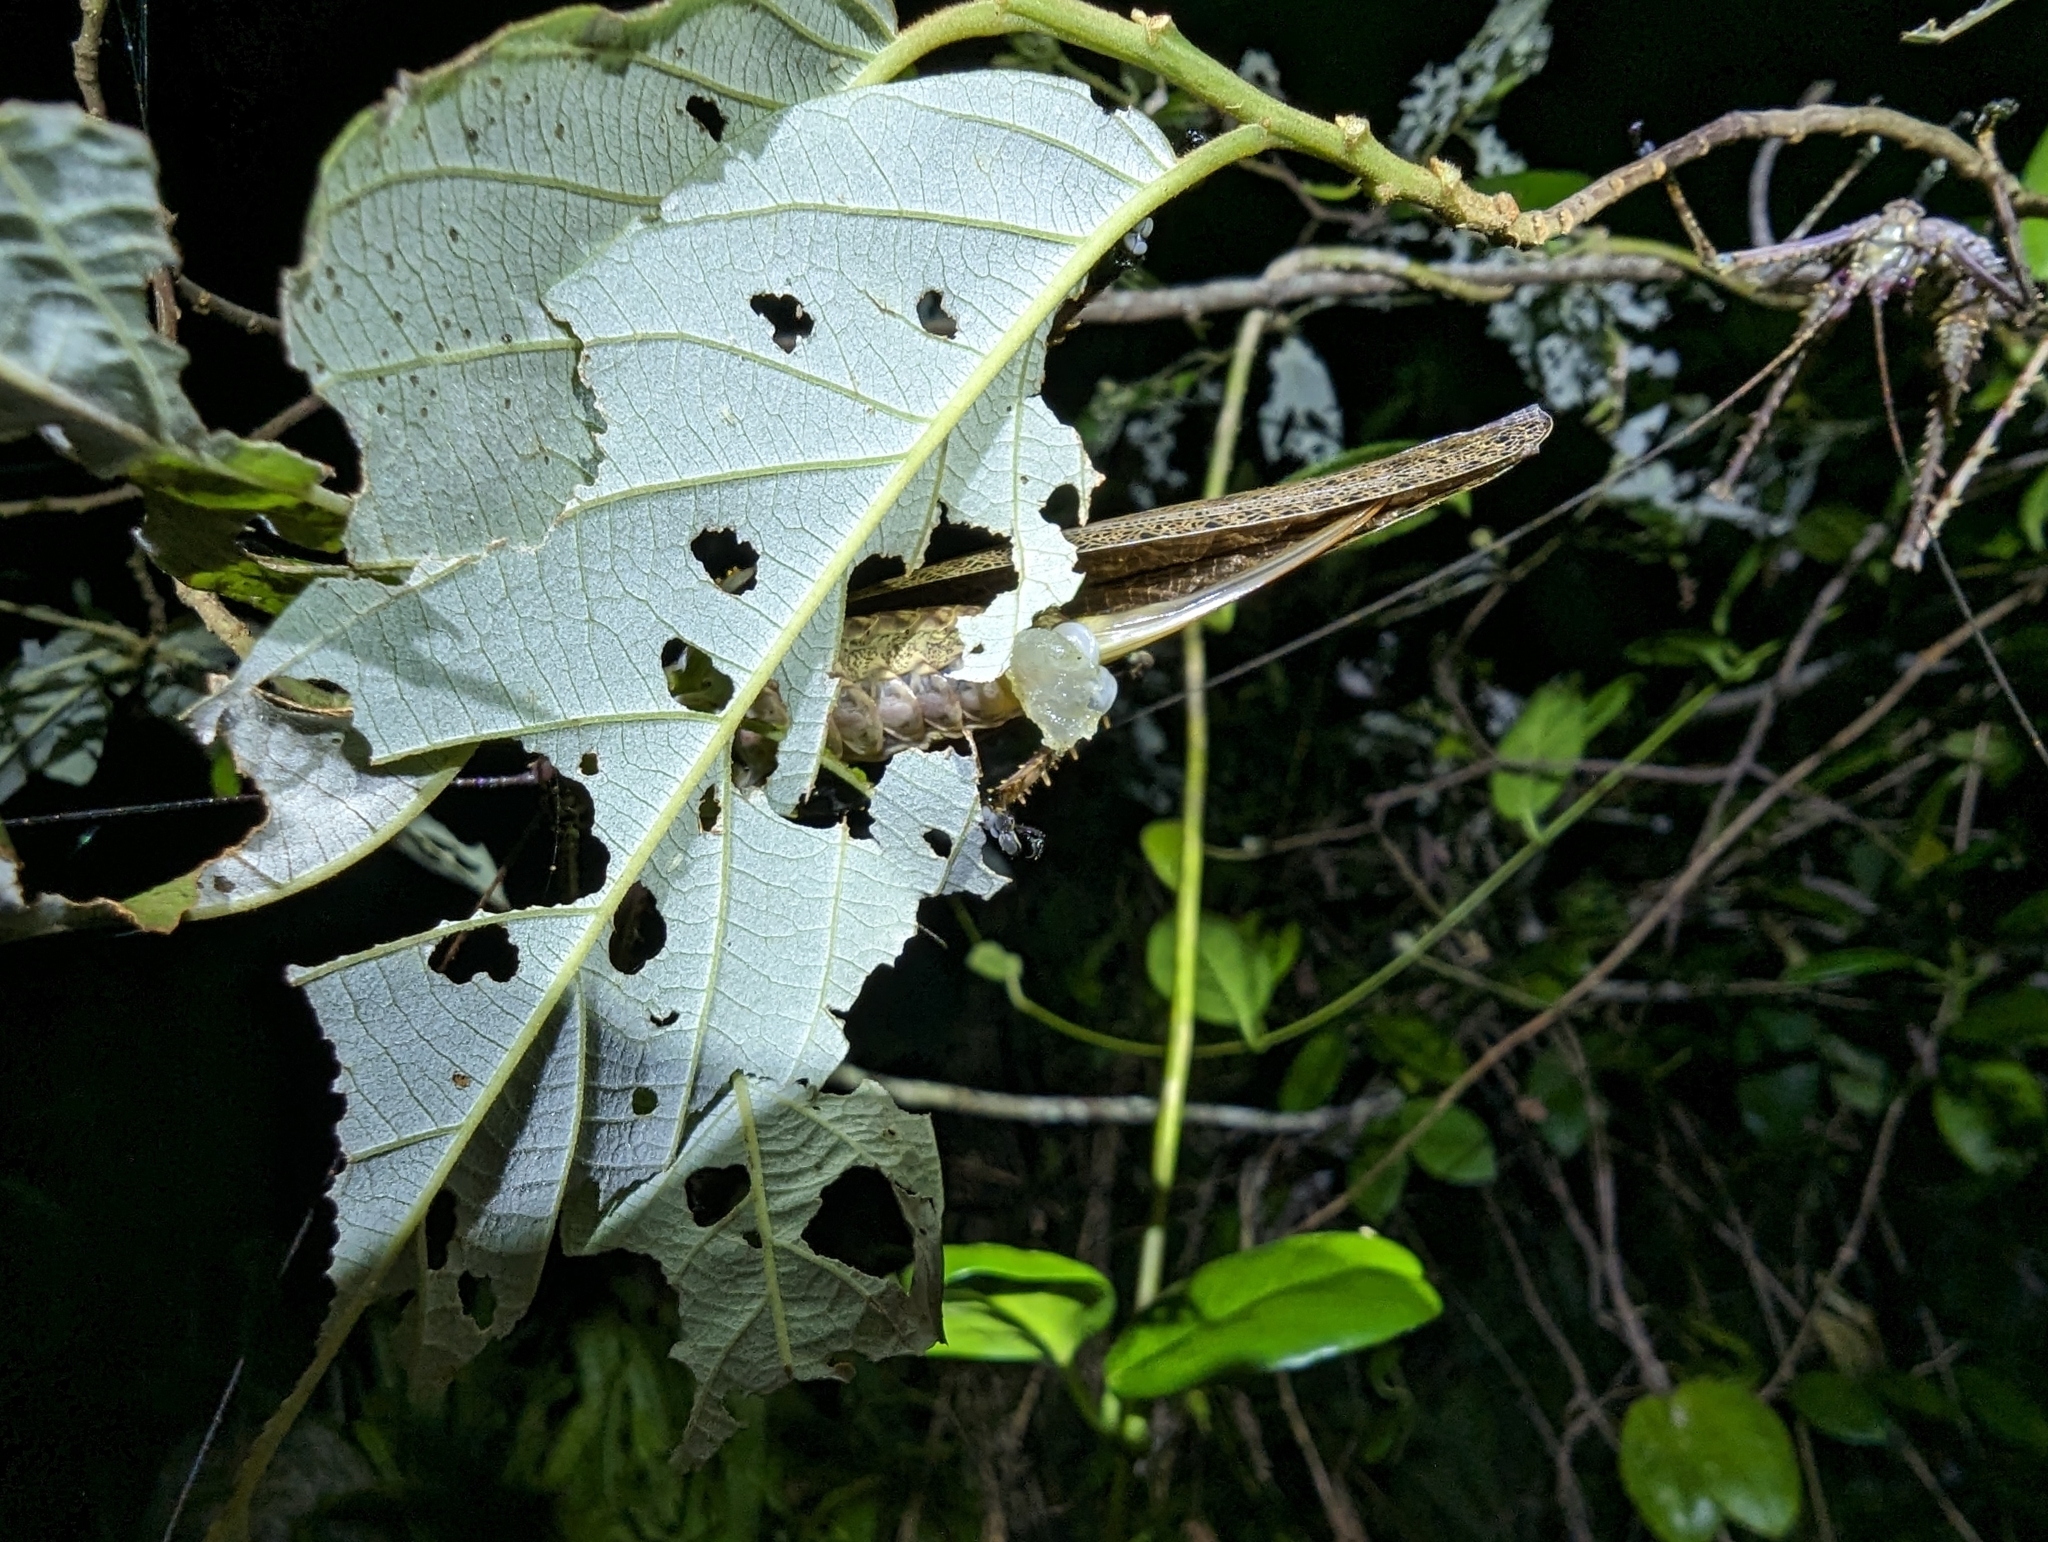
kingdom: Animalia
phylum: Arthropoda
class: Insecta
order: Orthoptera
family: Tettigoniidae
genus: Phricta
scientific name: Phricta spinosa
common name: Giant spiny forest katydid
